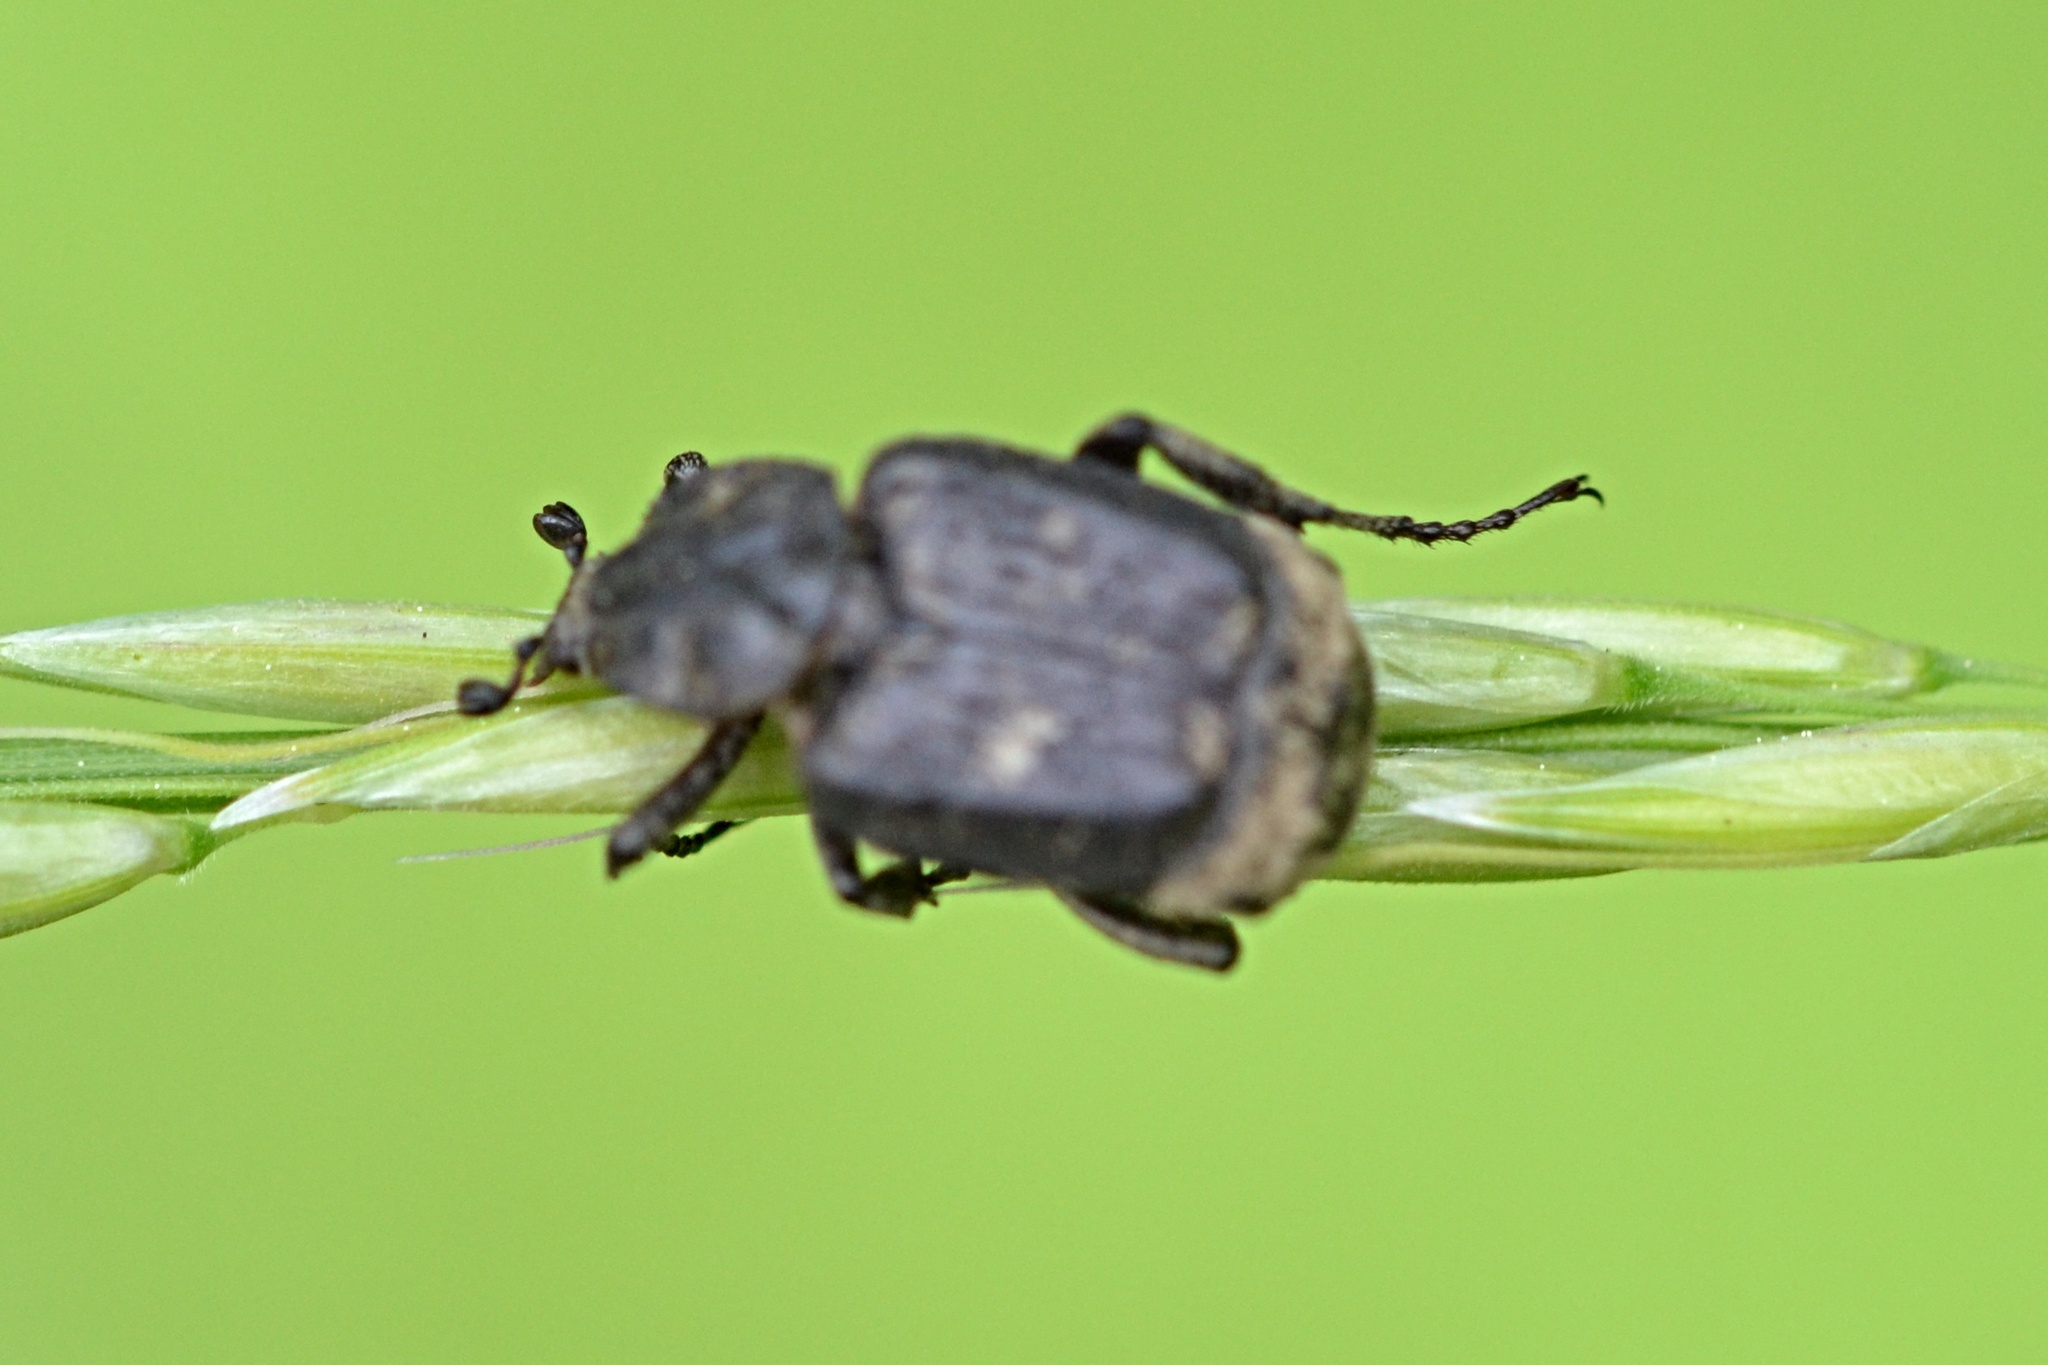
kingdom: Animalia
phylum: Arthropoda
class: Insecta
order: Coleoptera
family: Scarabaeidae
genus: Valgus
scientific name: Valgus hemipterus
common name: Bug flower chafer
